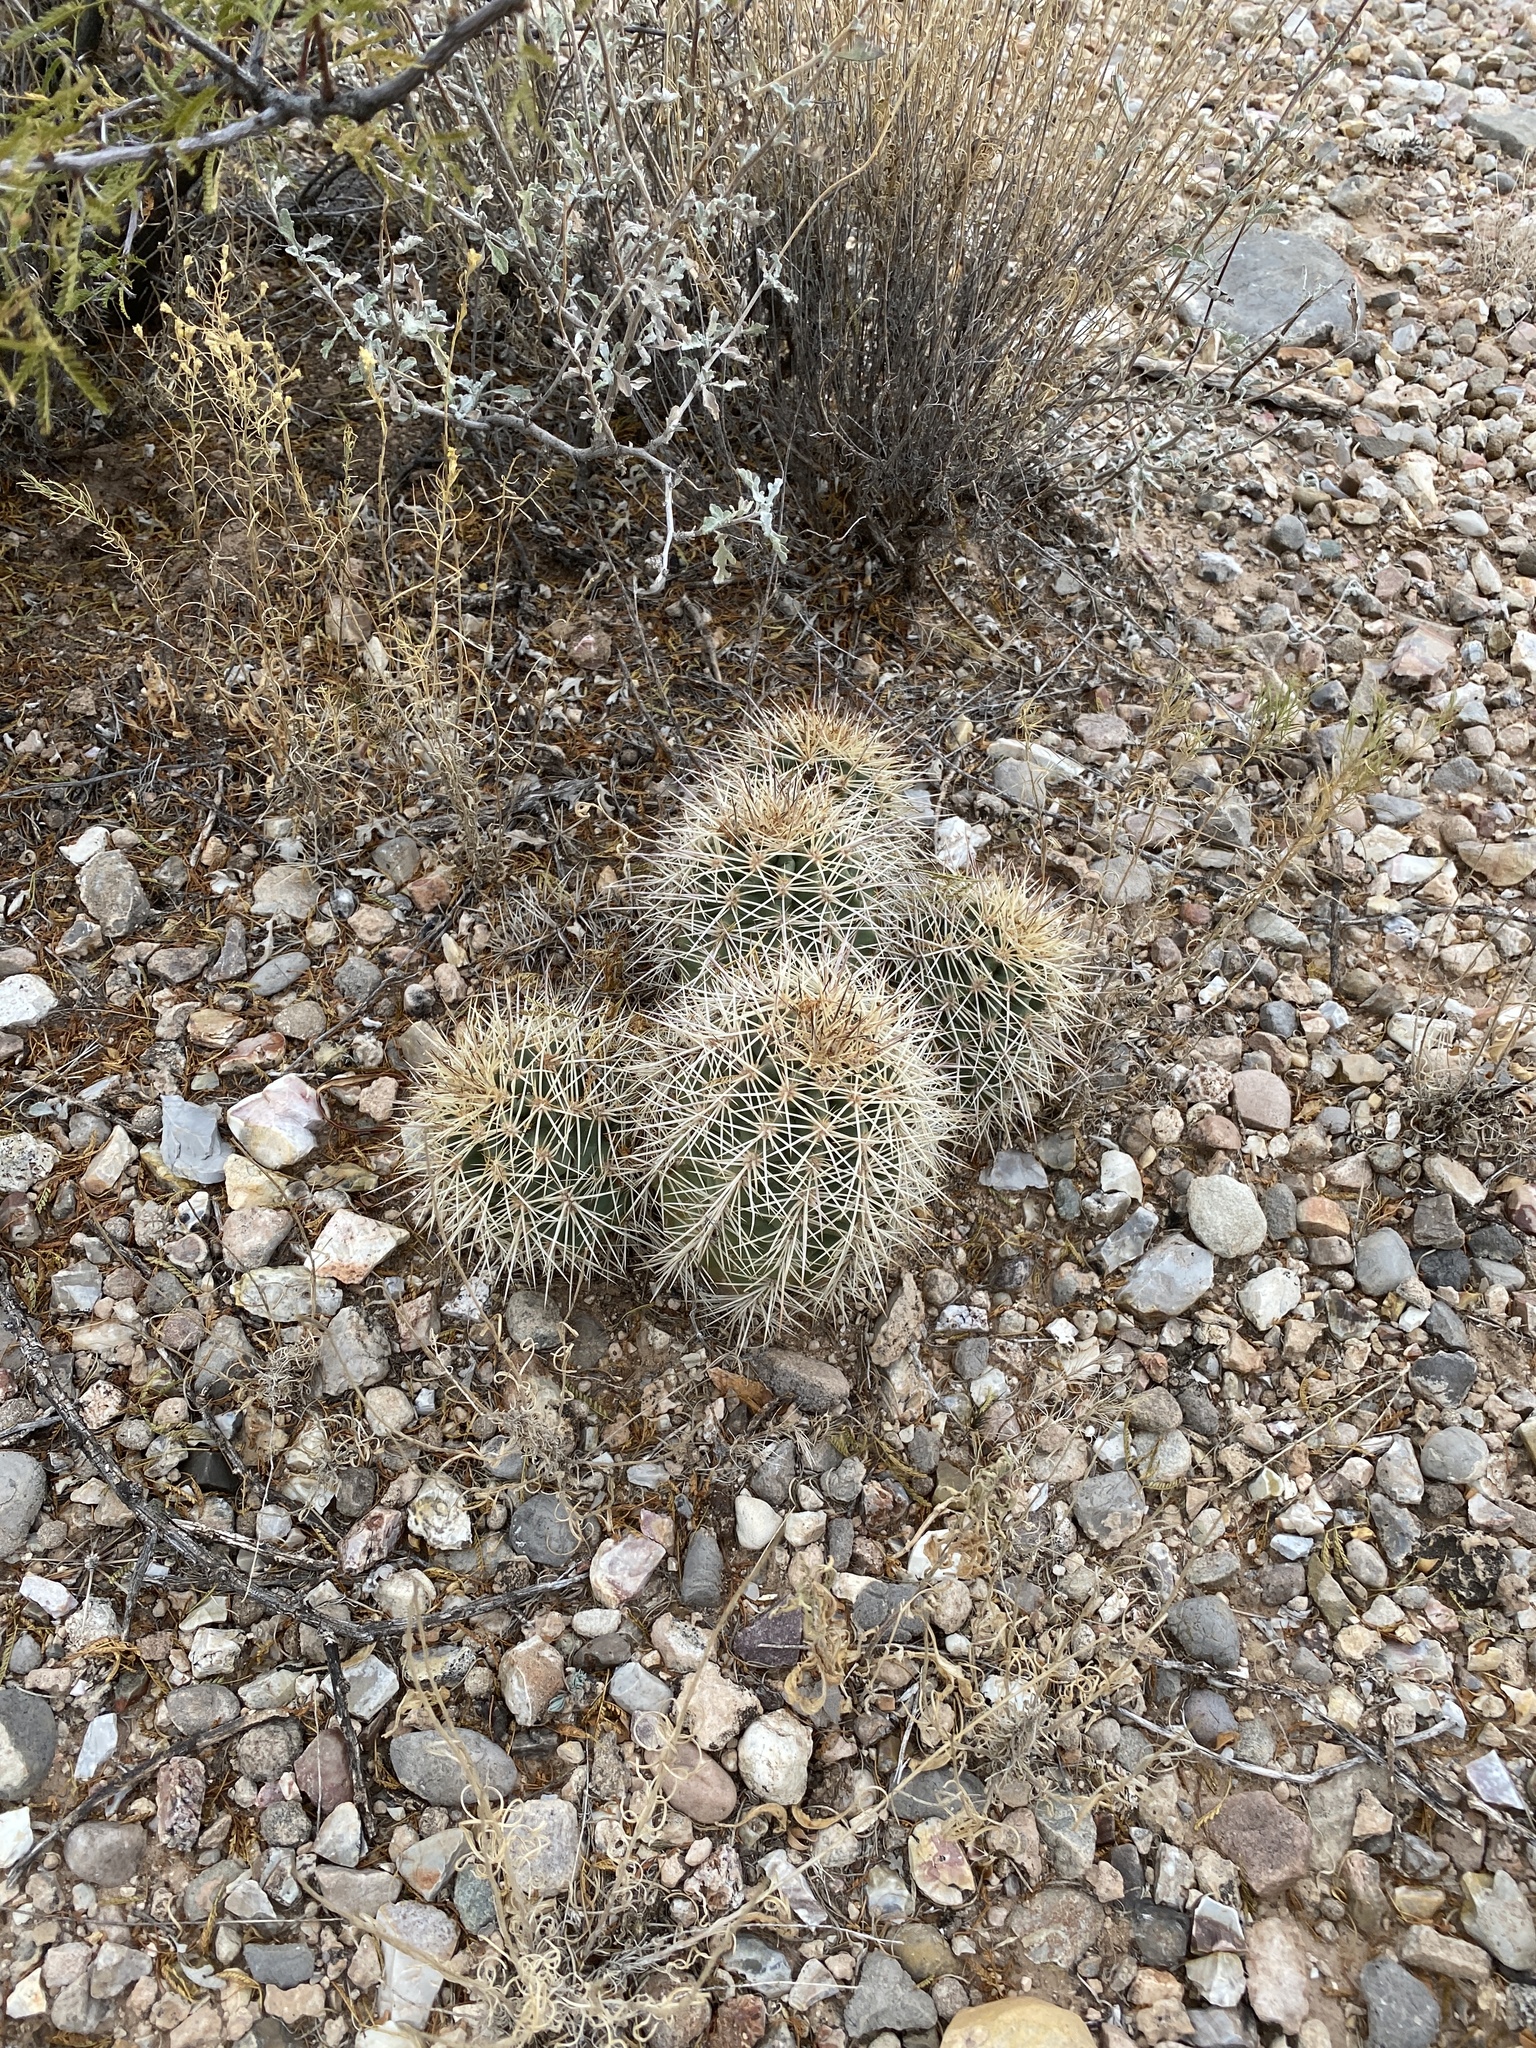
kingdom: Plantae
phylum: Tracheophyta
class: Magnoliopsida
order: Caryophyllales
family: Cactaceae
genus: Echinocereus
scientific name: Echinocereus coccineus
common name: Scarlet hedgehog cactus
